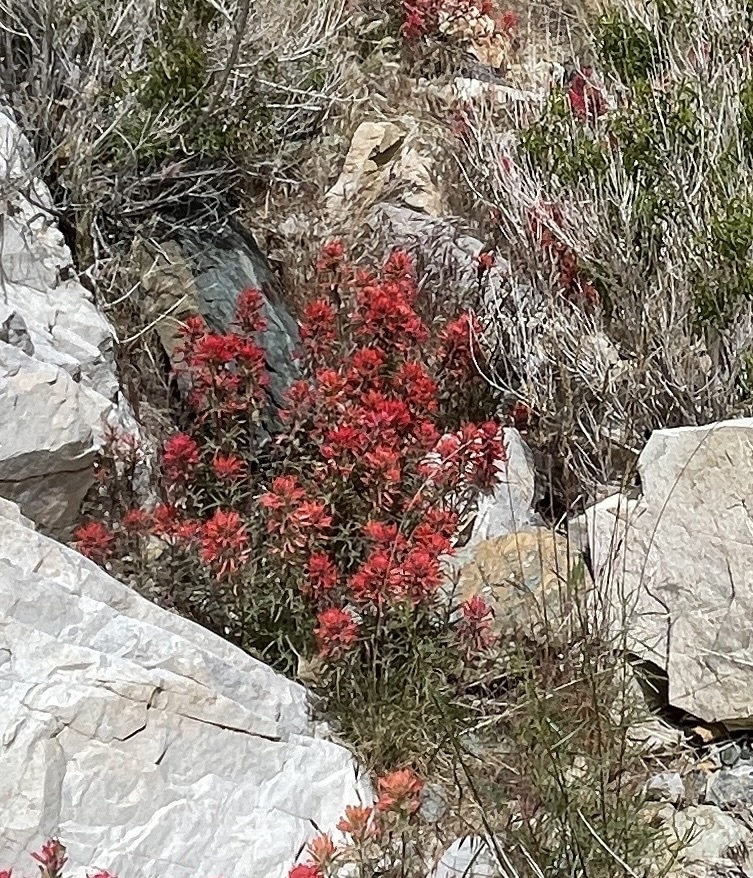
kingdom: Plantae
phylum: Tracheophyta
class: Magnoliopsida
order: Lamiales
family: Orobanchaceae
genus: Castilleja
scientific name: Castilleja chromosa
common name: Desert paintbrush
